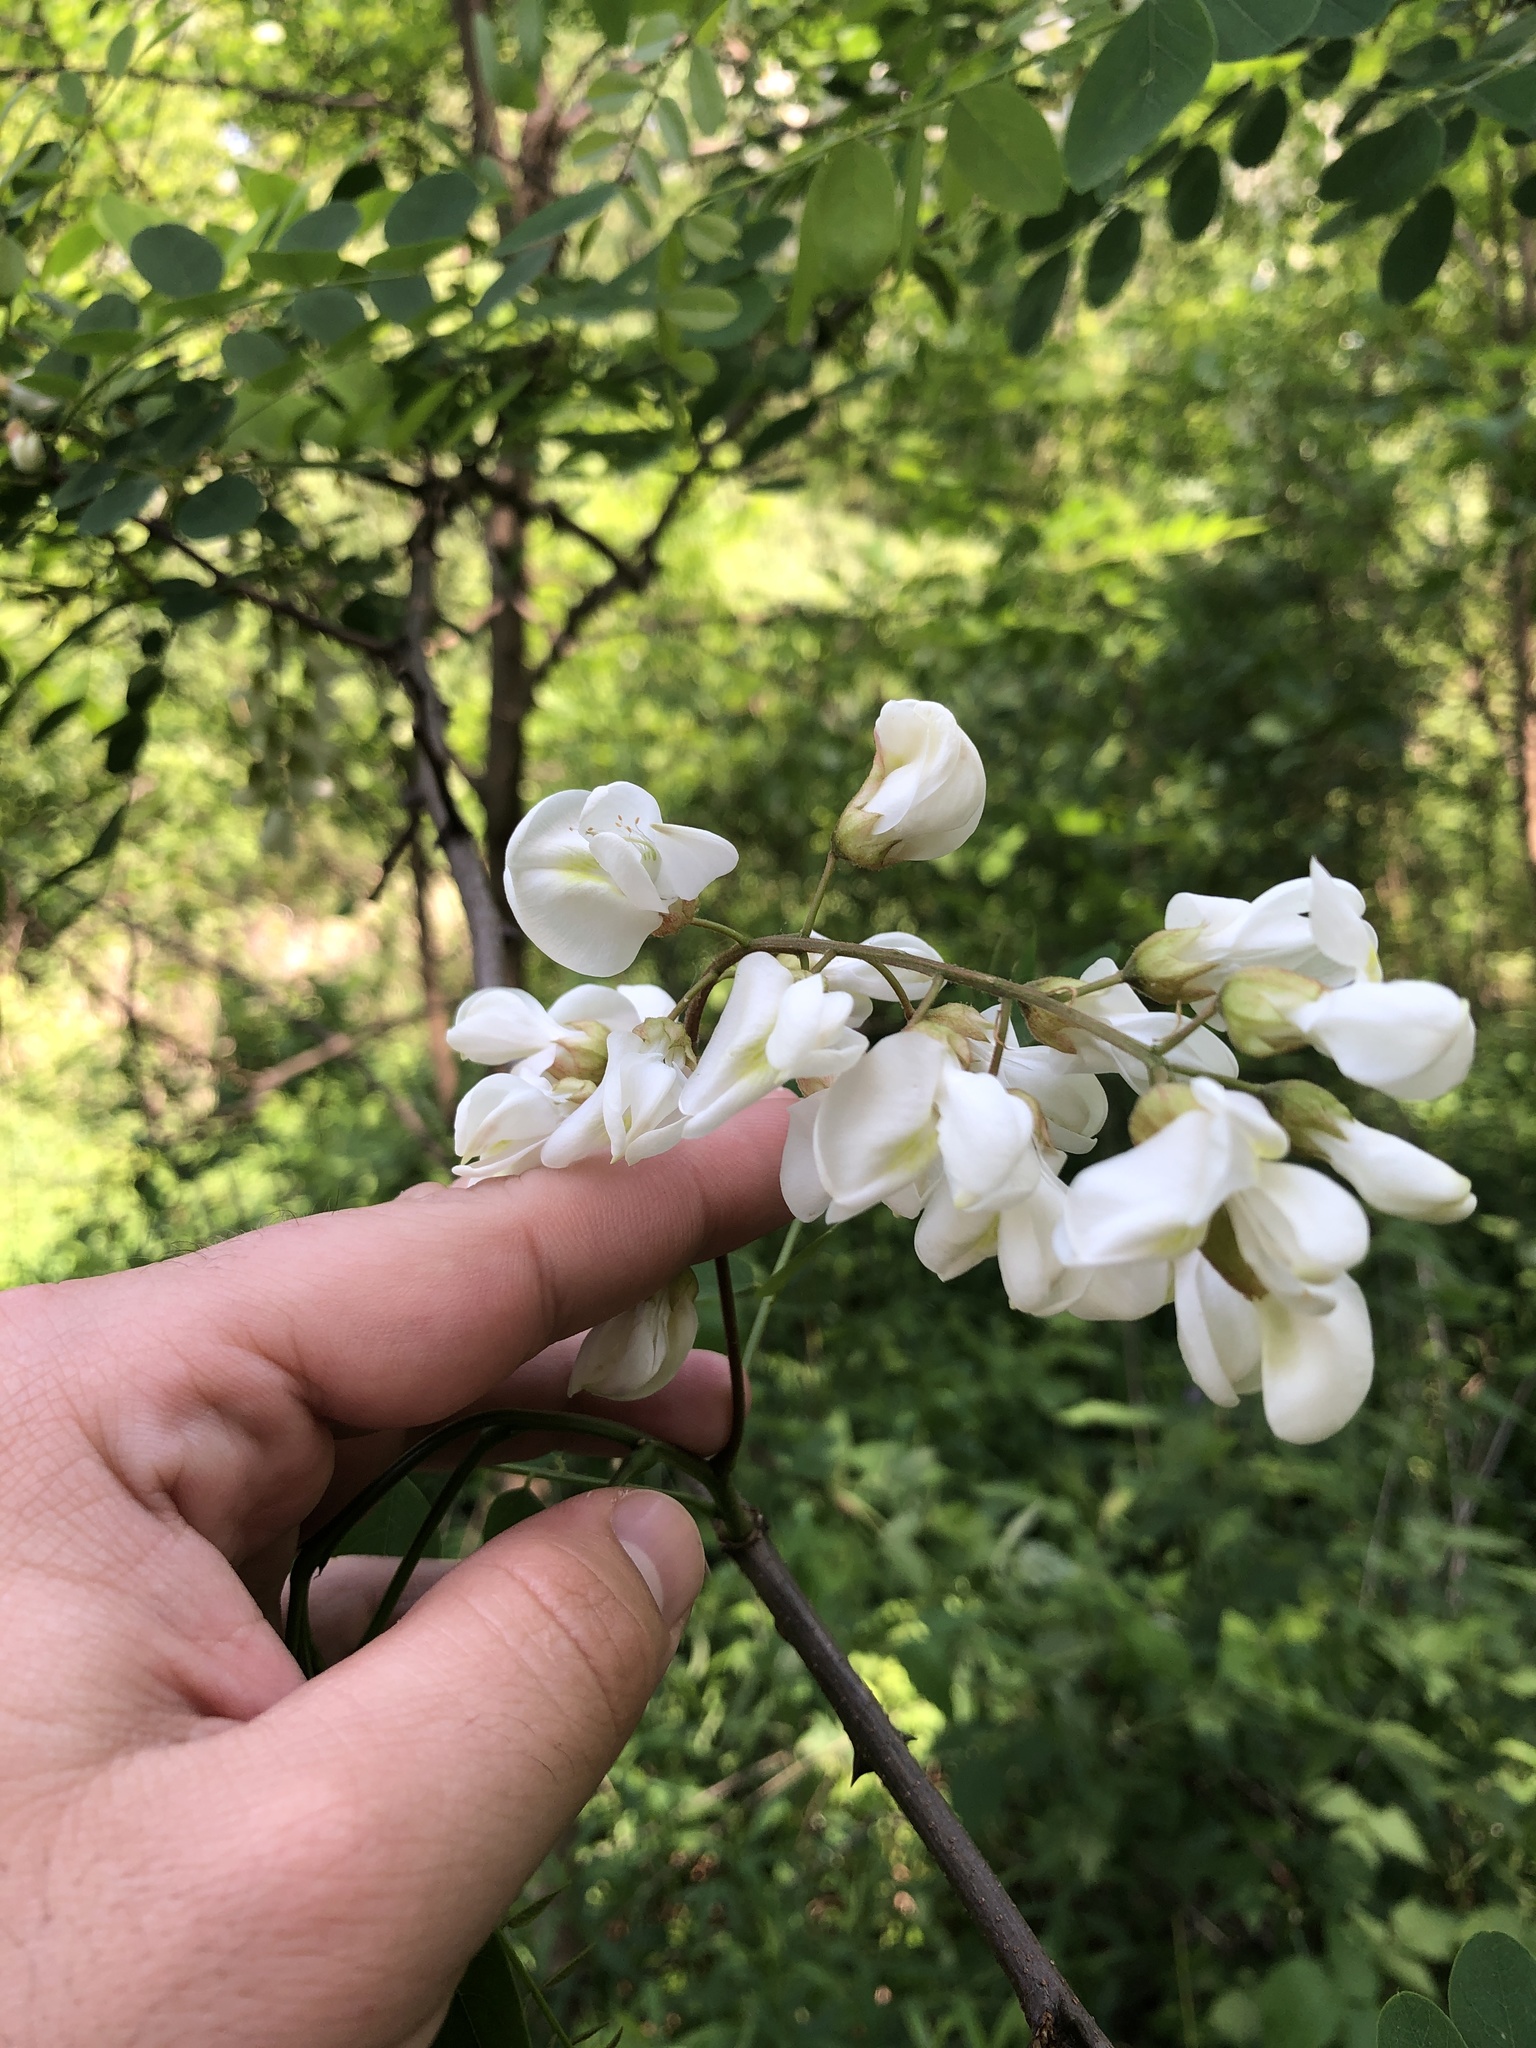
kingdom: Plantae
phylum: Tracheophyta
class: Magnoliopsida
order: Fabales
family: Fabaceae
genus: Robinia
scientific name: Robinia pseudoacacia
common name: Black locust
